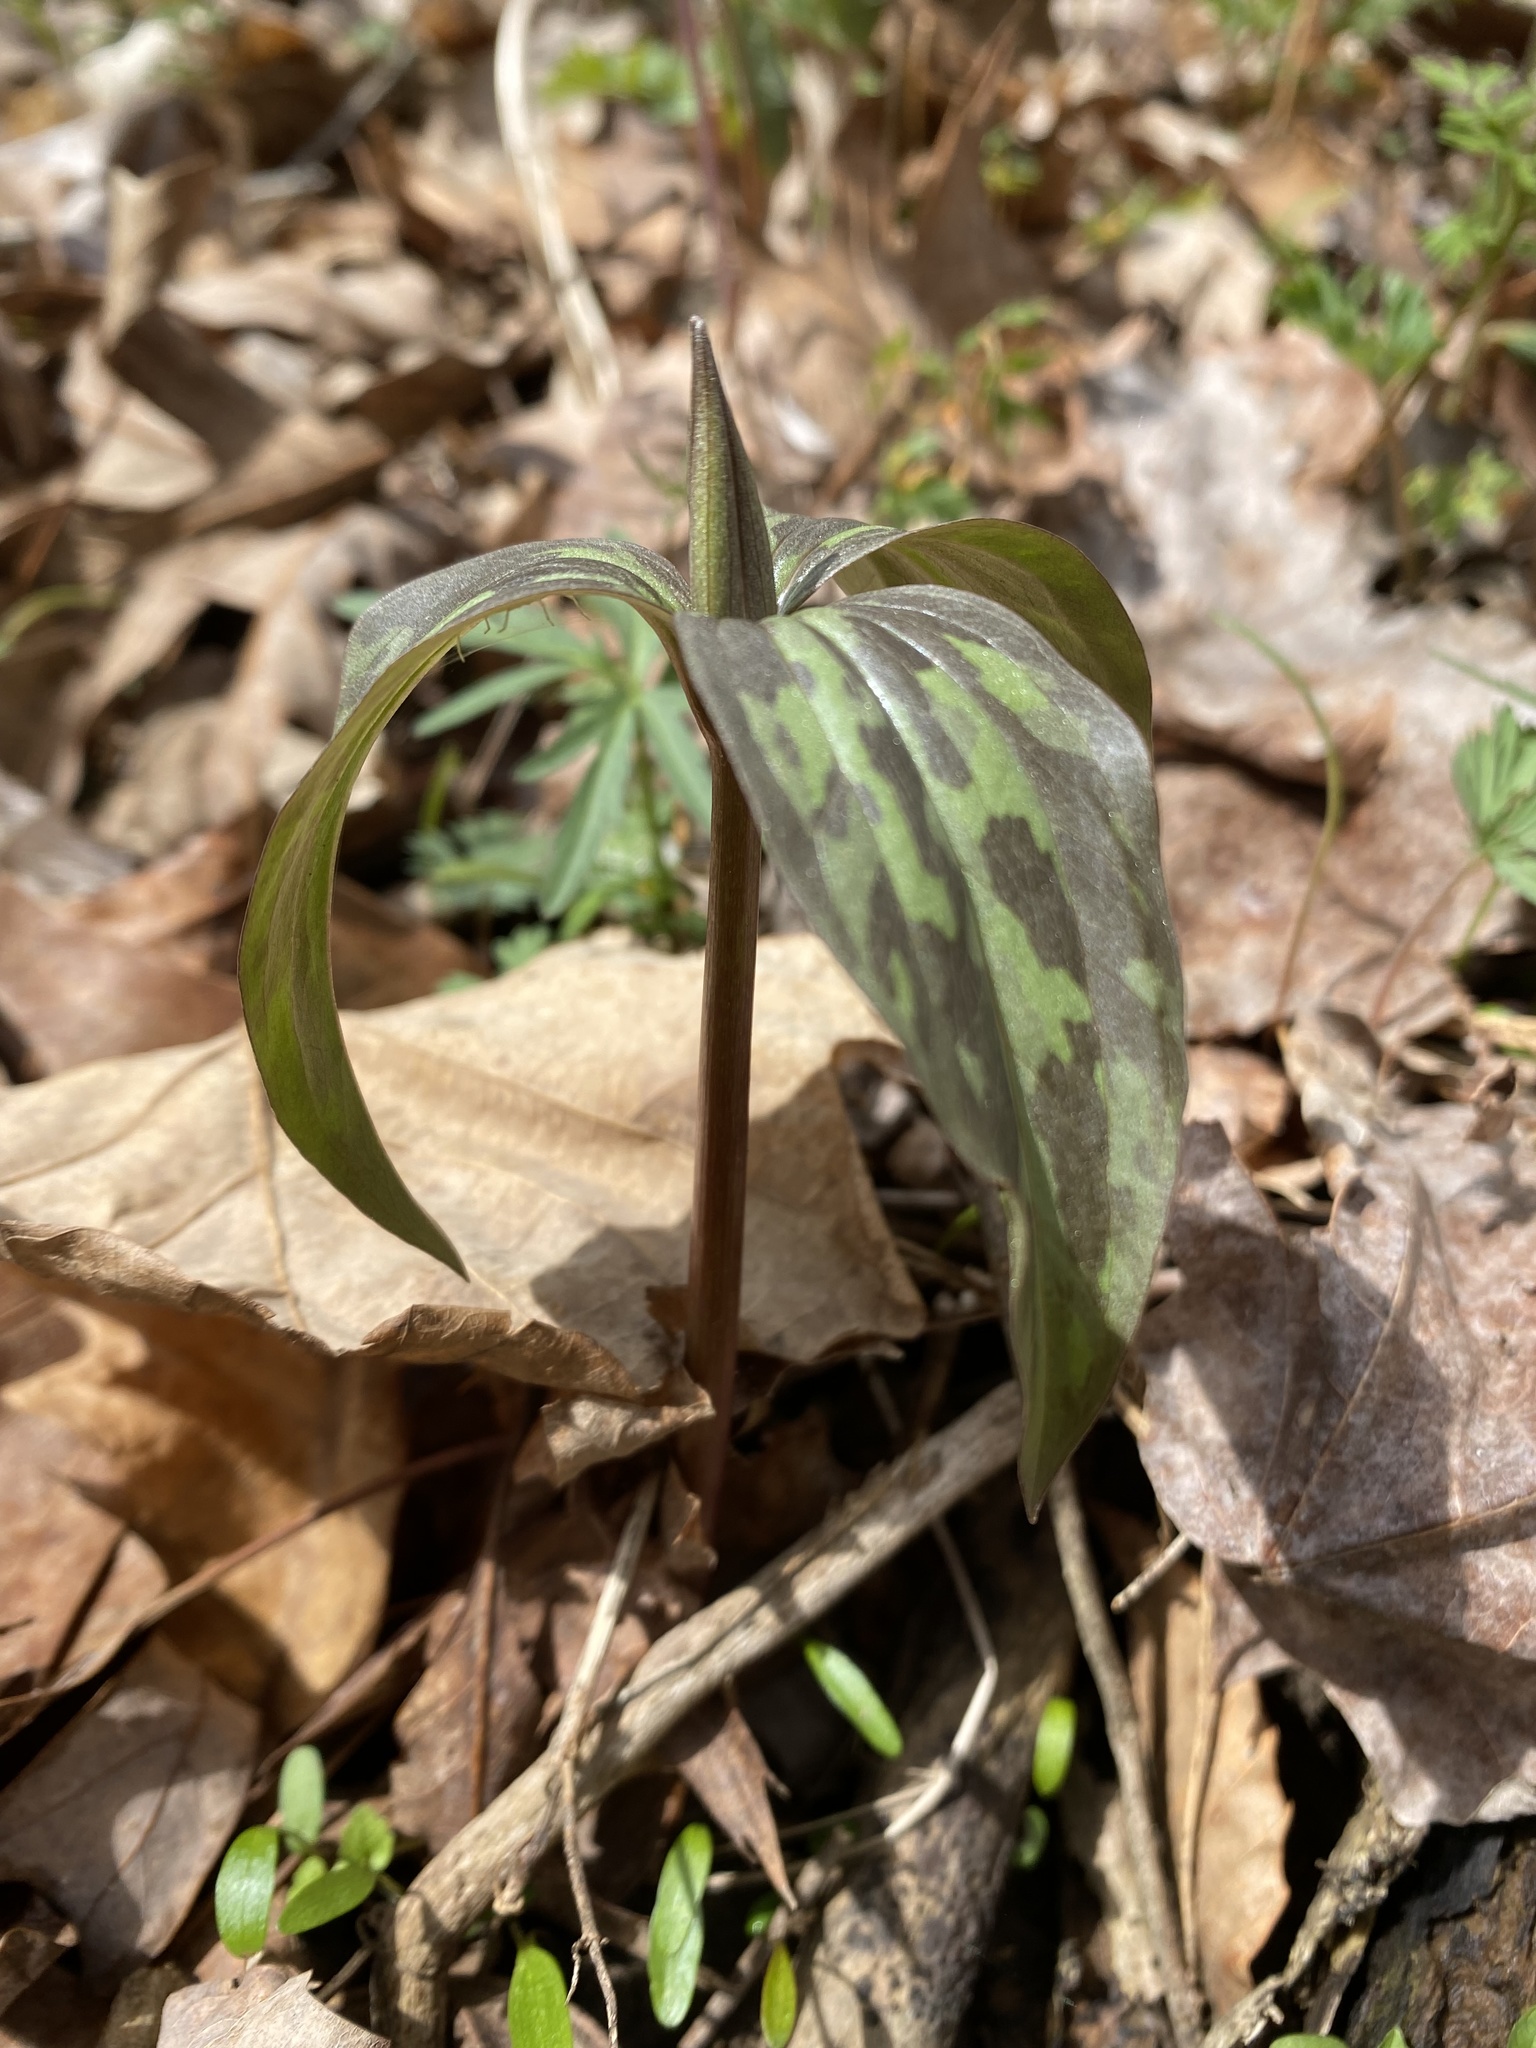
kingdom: Plantae
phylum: Tracheophyta
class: Liliopsida
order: Liliales
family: Melanthiaceae
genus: Trillium
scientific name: Trillium recurvatum
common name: Bloody butcher
